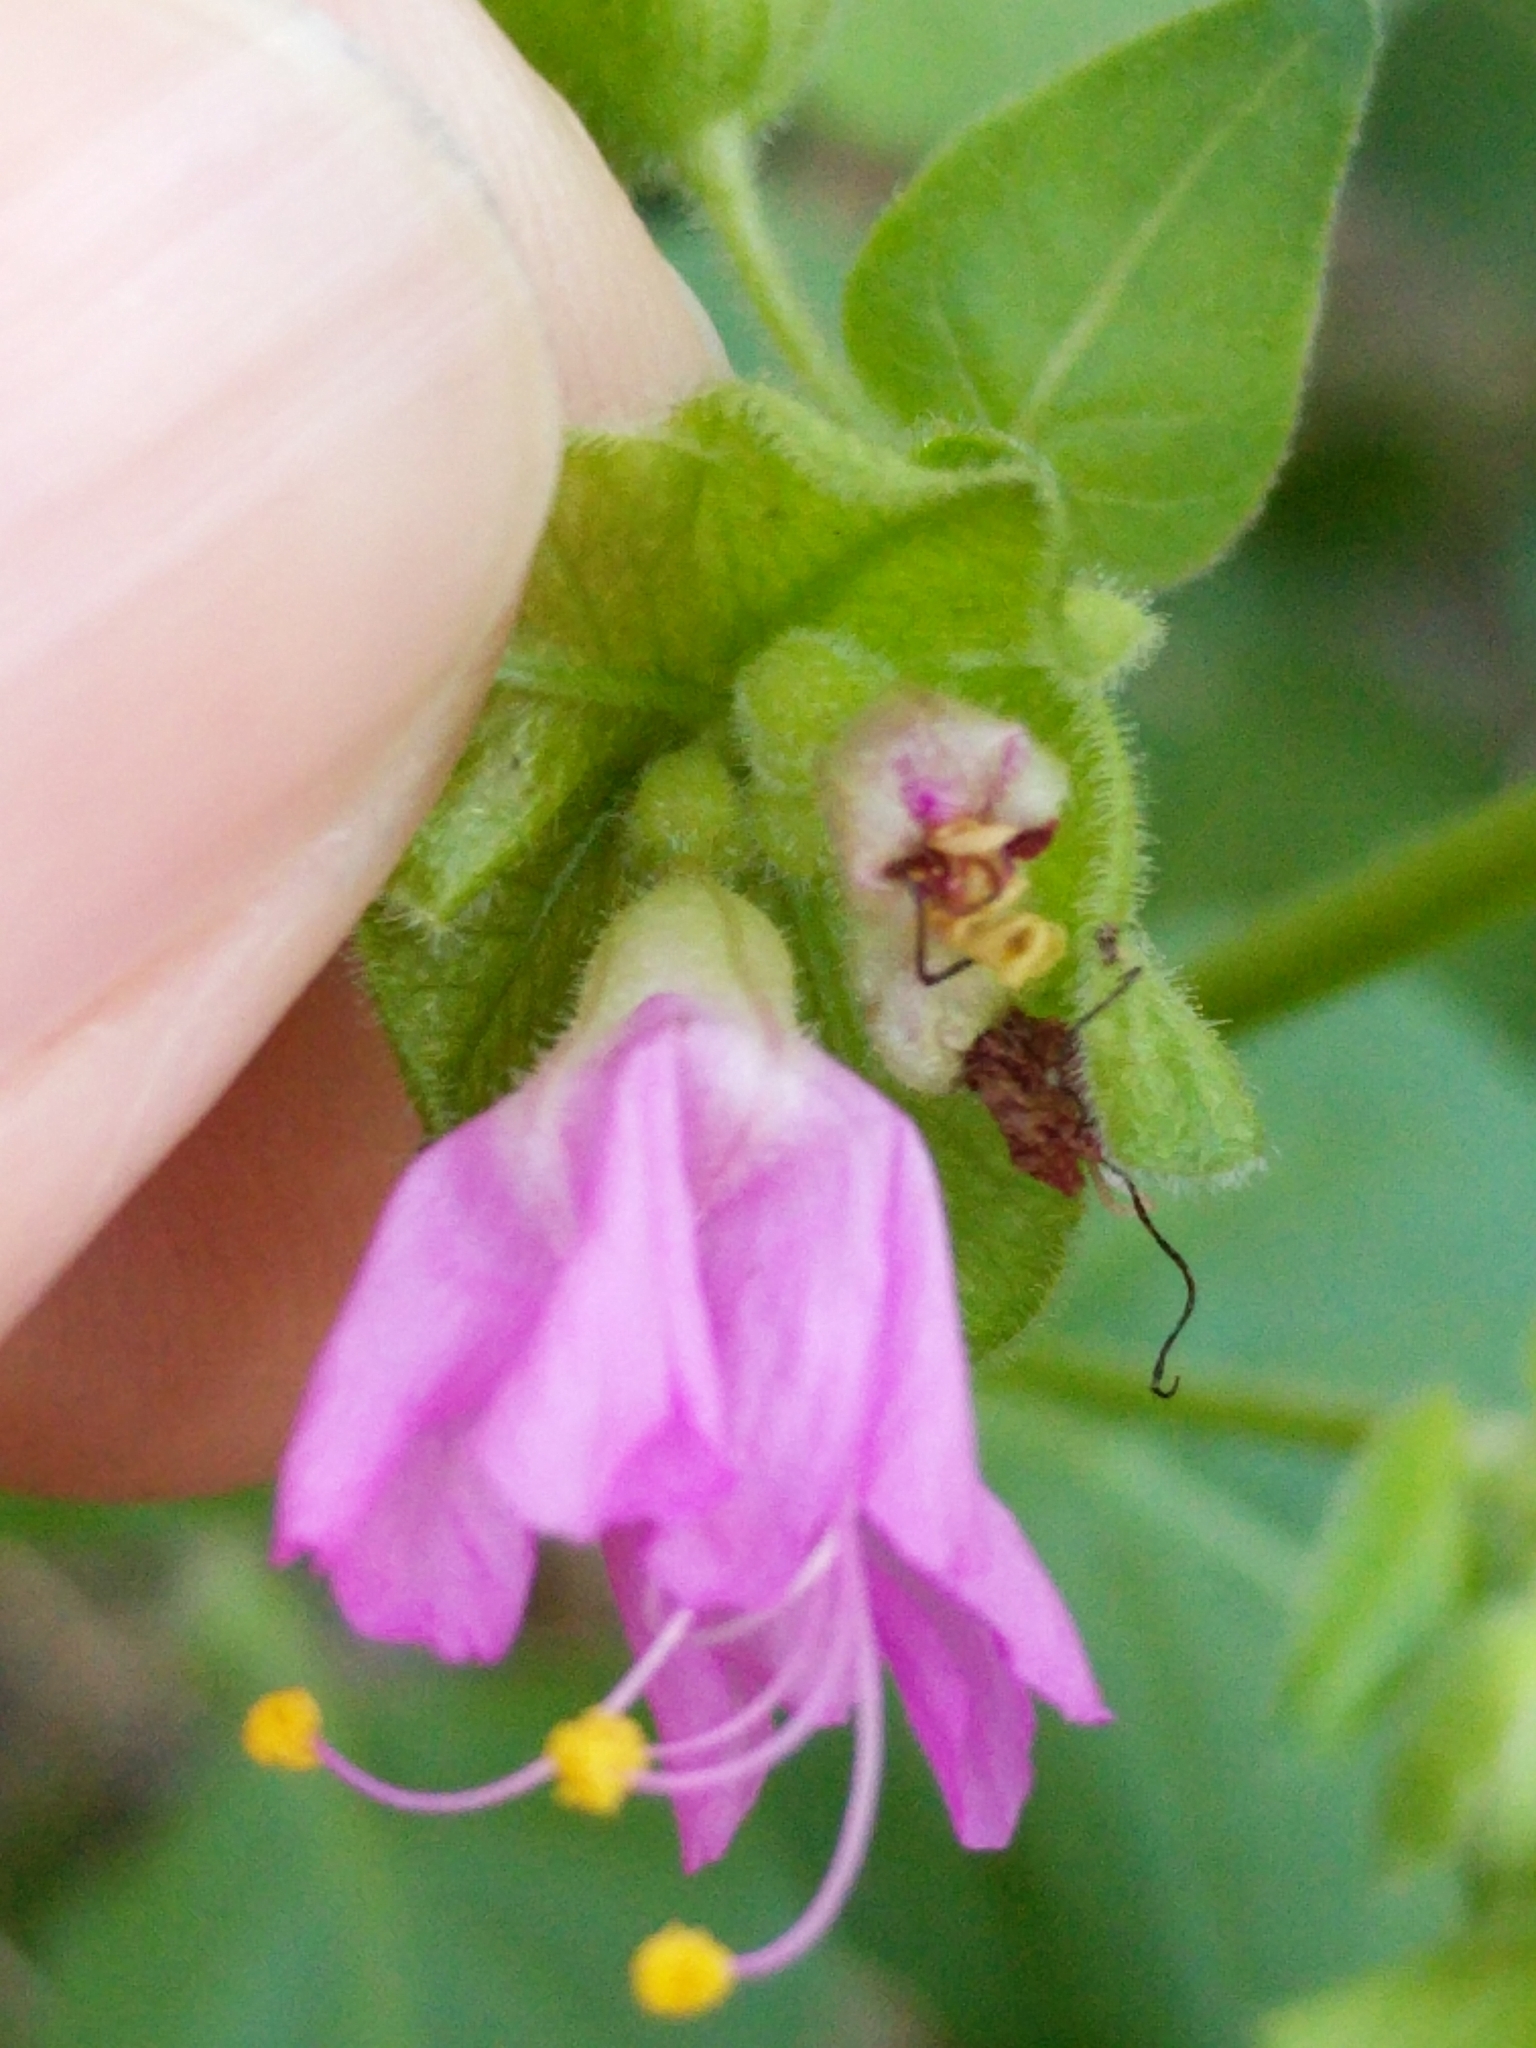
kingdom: Plantae
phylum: Tracheophyta
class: Magnoliopsida
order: Caryophyllales
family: Nyctaginaceae
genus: Mirabilis
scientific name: Mirabilis latifolia
